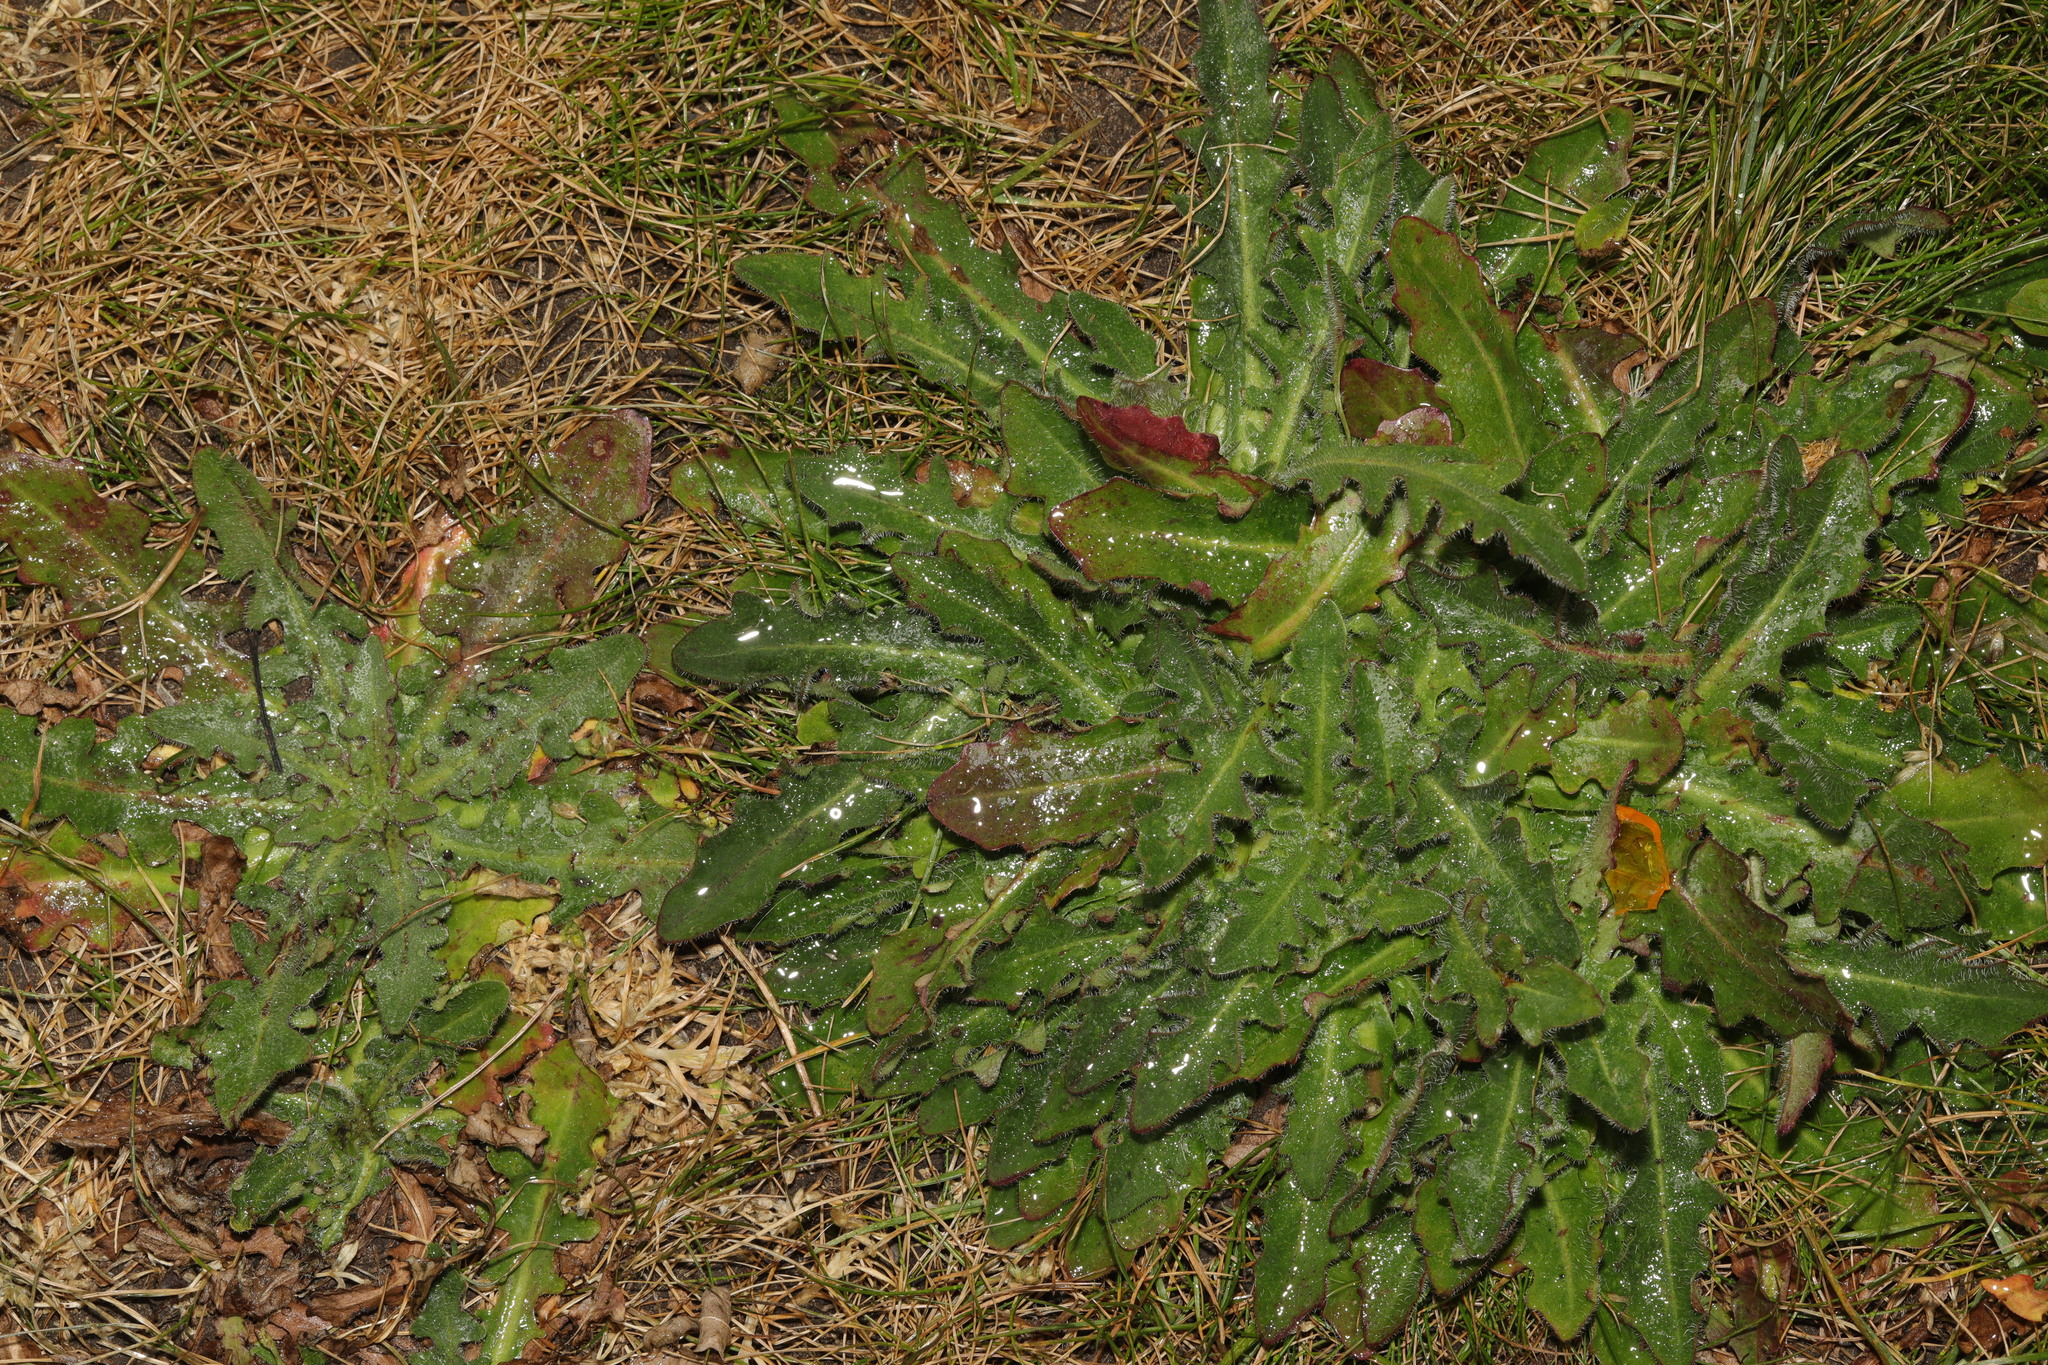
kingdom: Plantae
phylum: Tracheophyta
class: Magnoliopsida
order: Asterales
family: Asteraceae
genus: Hypochaeris
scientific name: Hypochaeris radicata
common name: Flatweed
